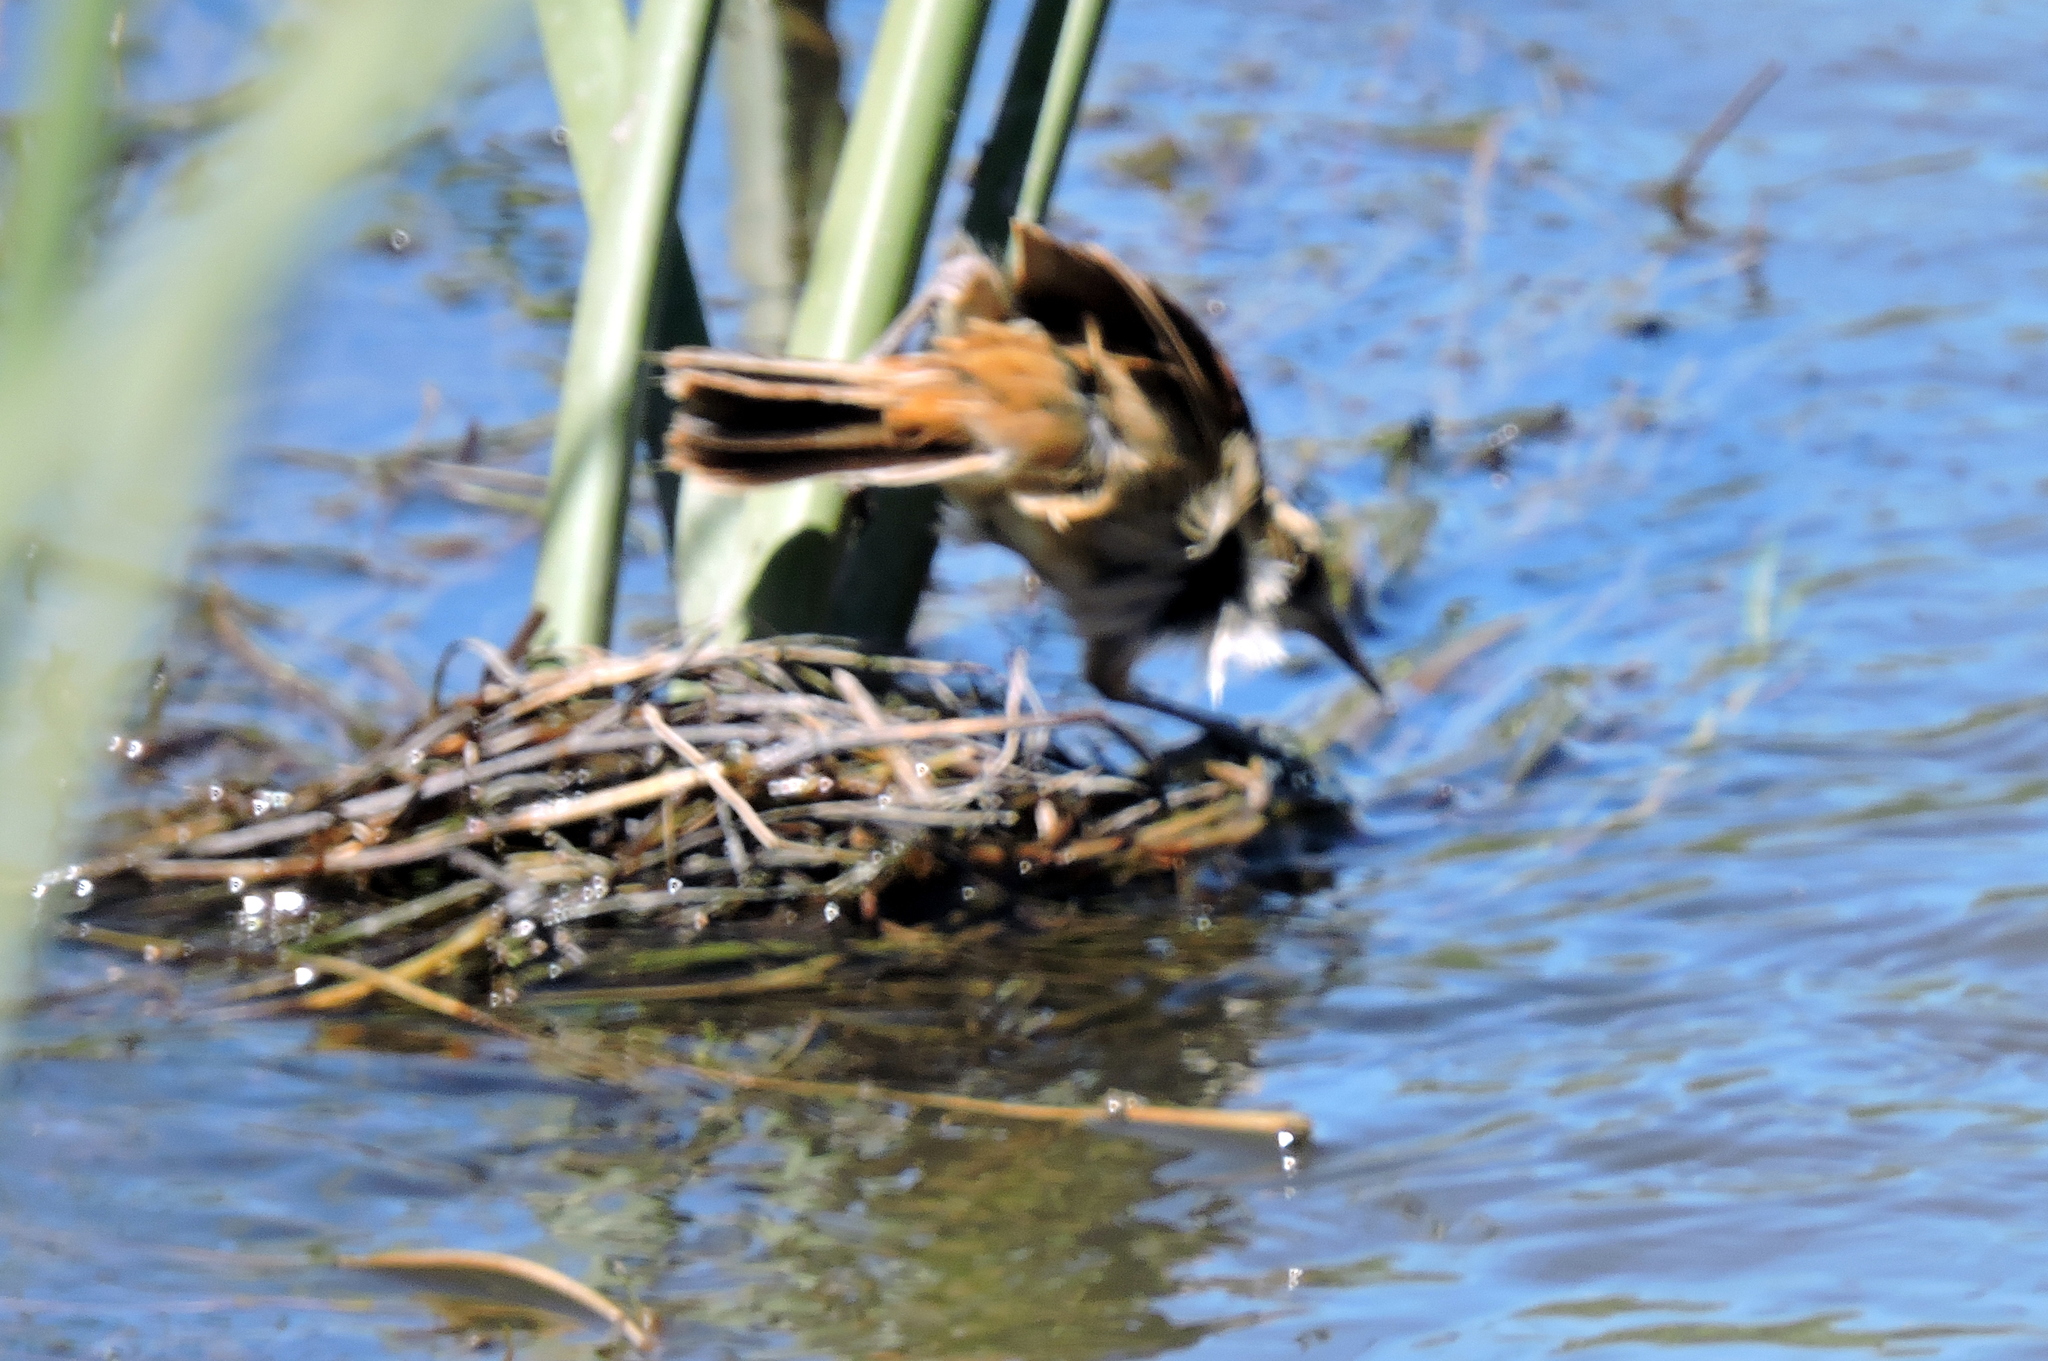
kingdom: Animalia
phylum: Chordata
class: Aves
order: Passeriformes
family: Furnariidae
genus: Phleocryptes
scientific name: Phleocryptes melanops
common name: Wren-like rushbird
